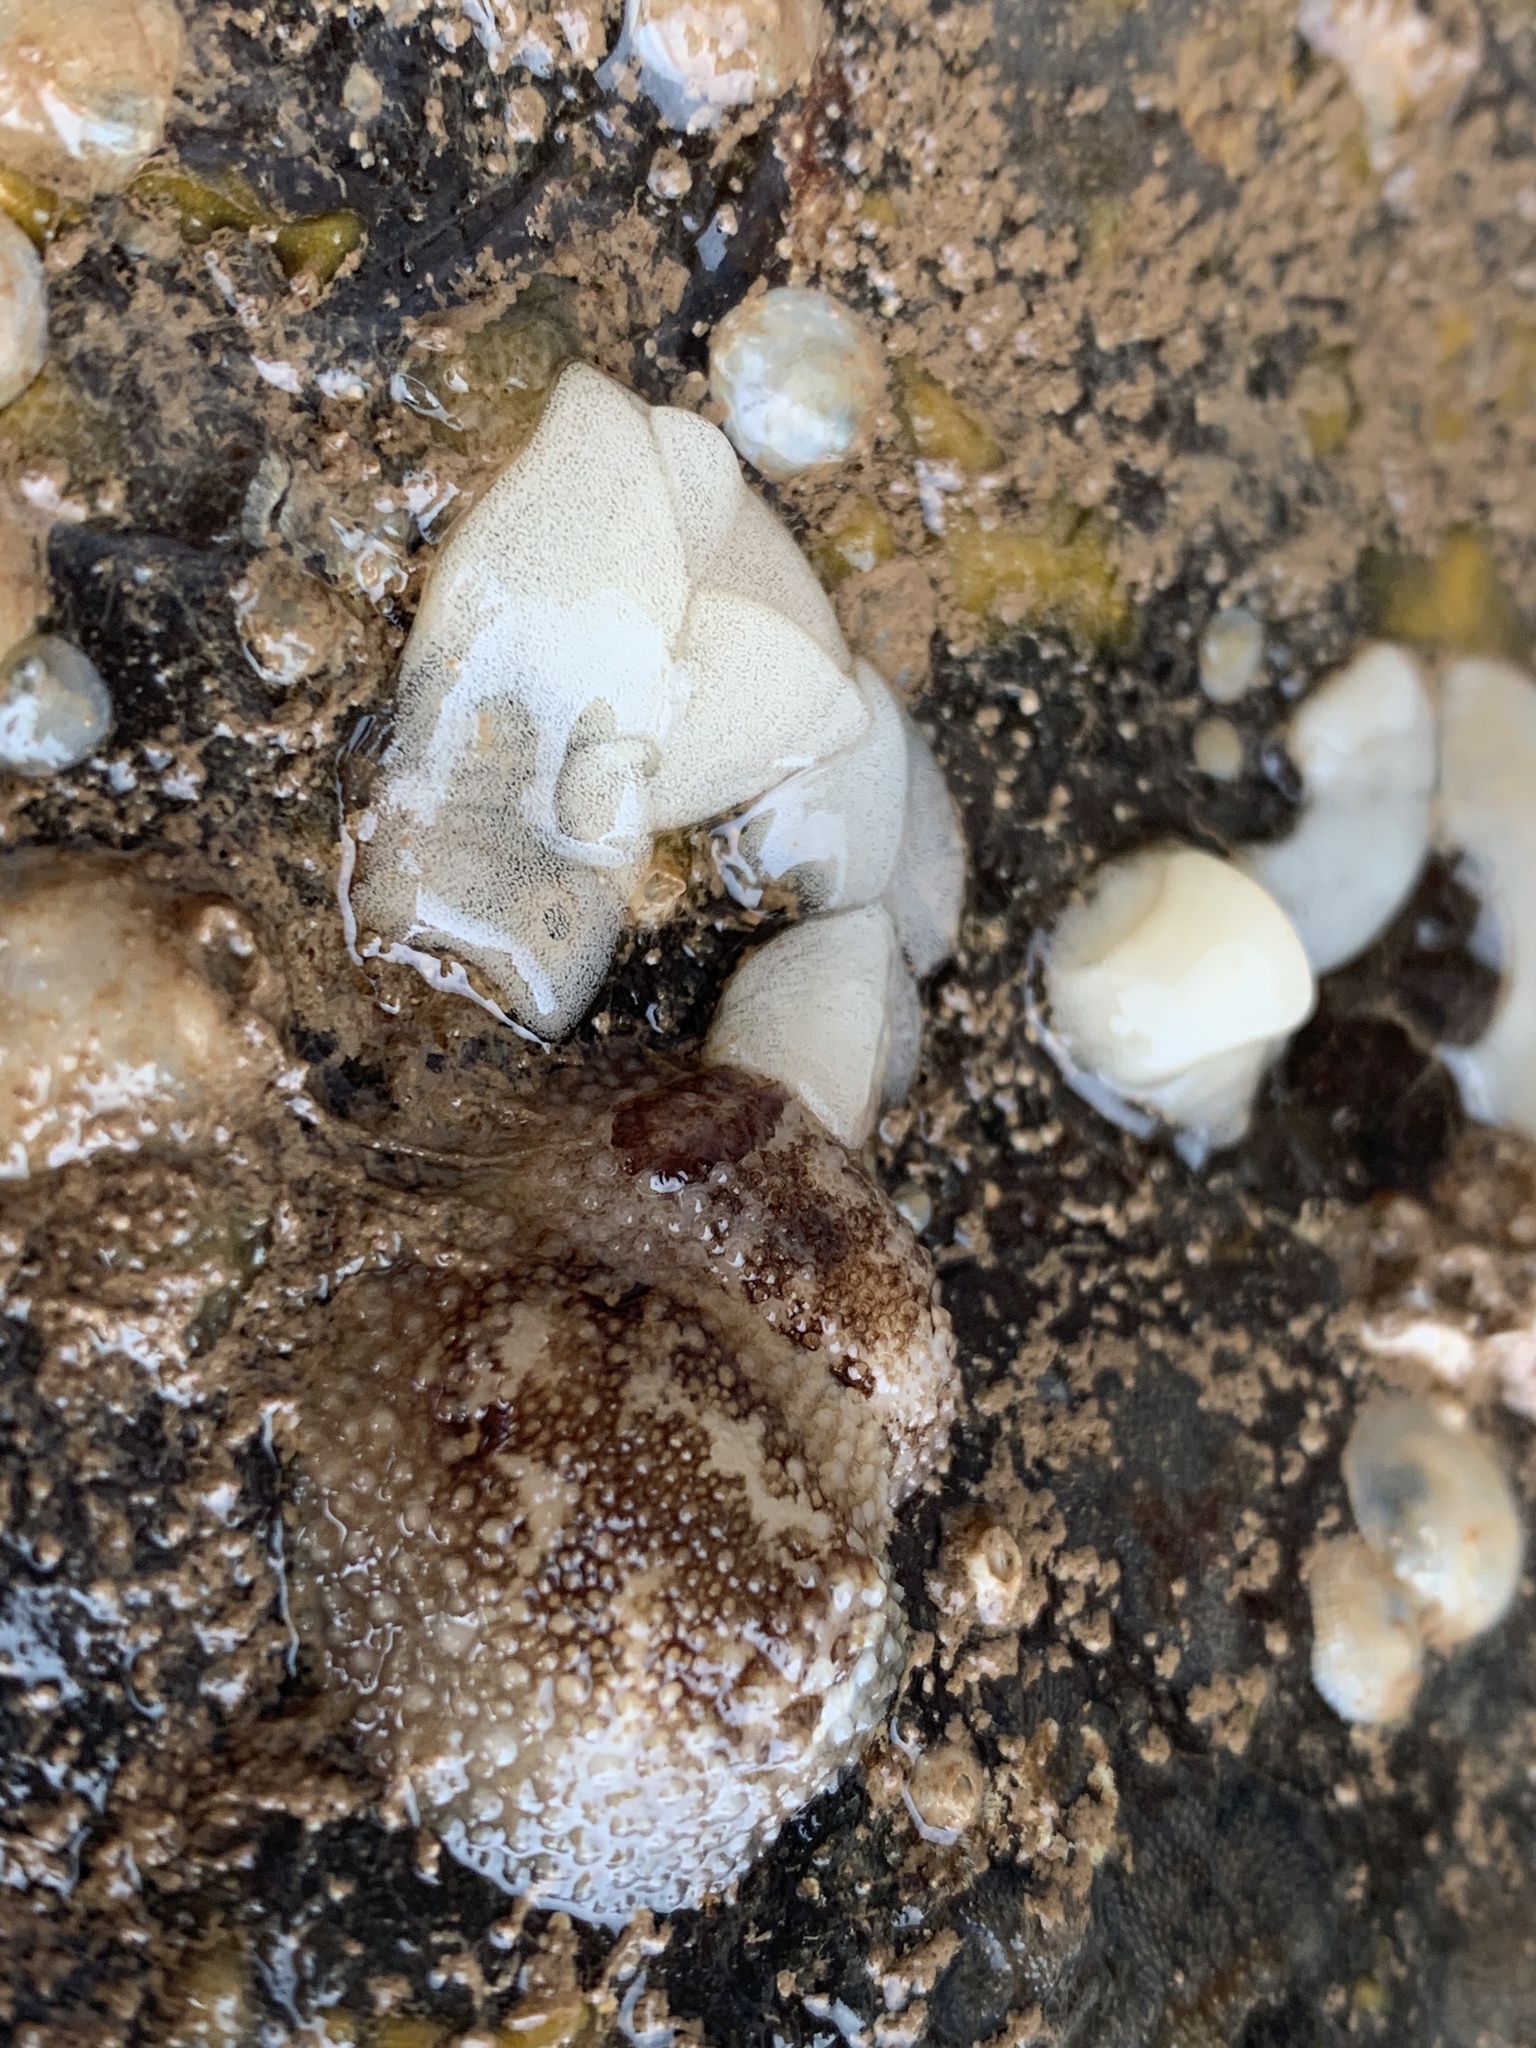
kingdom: Animalia
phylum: Mollusca
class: Gastropoda
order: Nudibranchia
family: Onchidorididae
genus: Onchidoris
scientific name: Onchidoris bilamellata
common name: Barnacle-eating onchidoris
